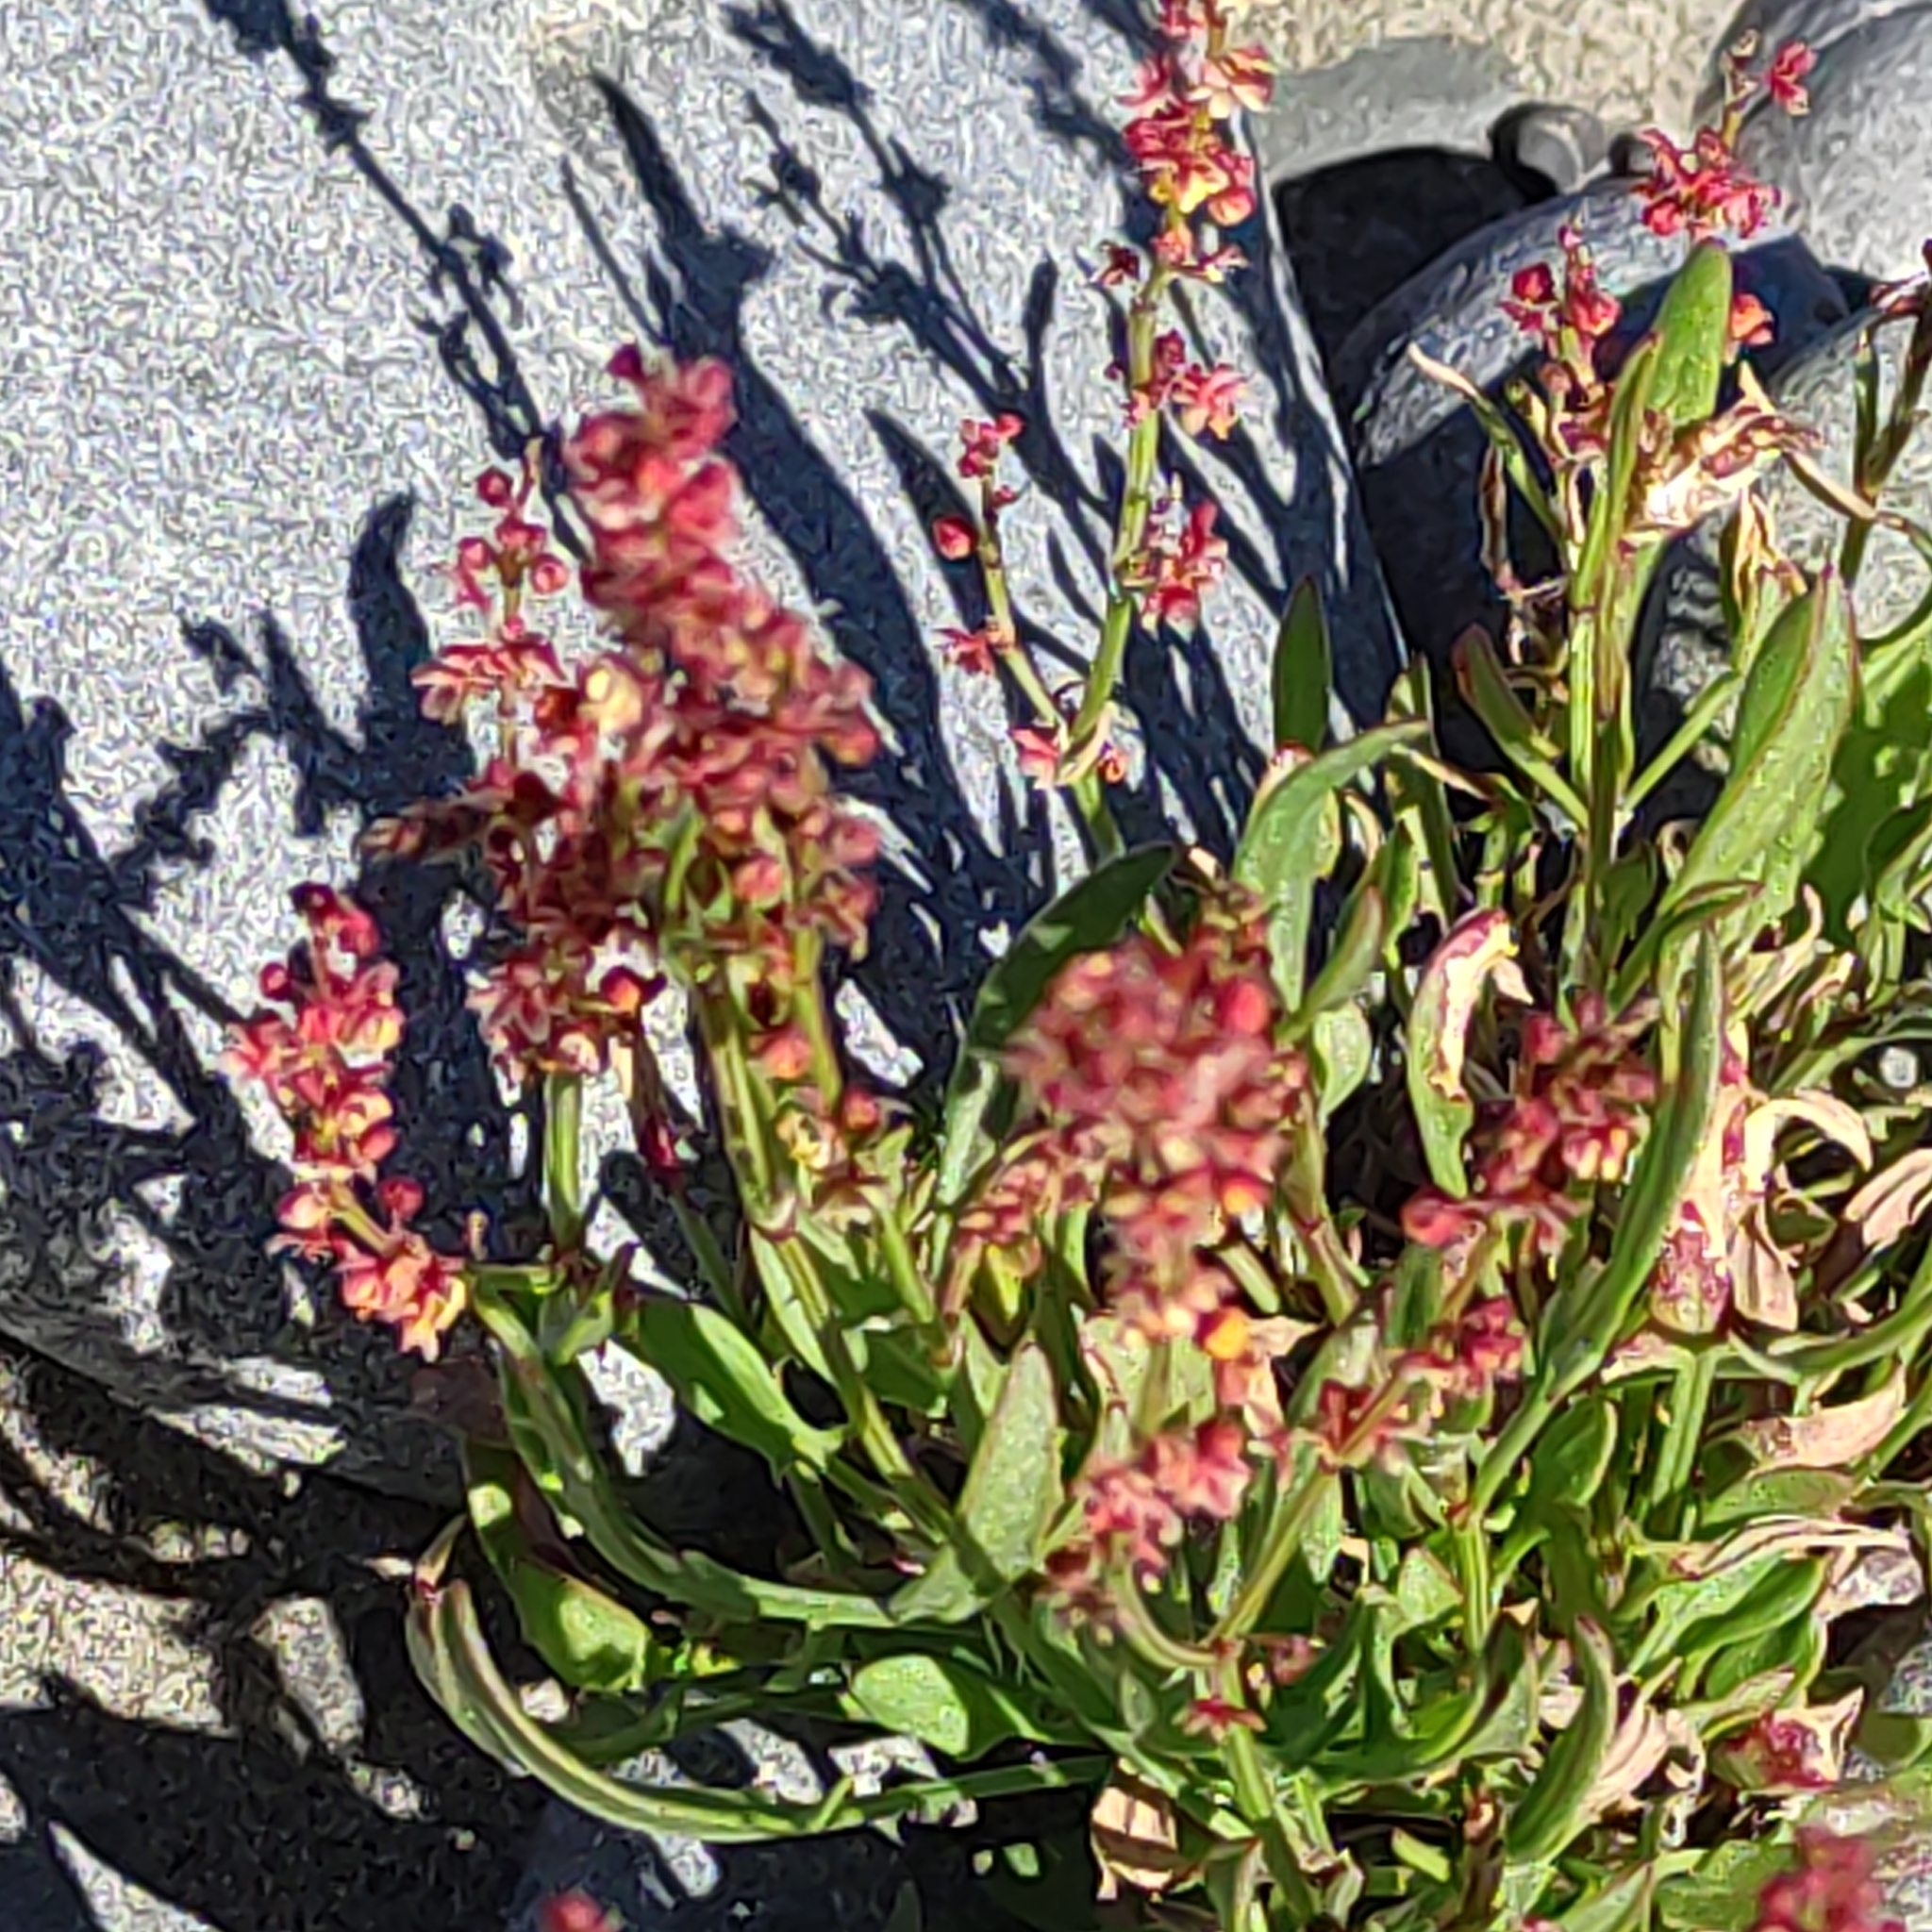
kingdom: Plantae
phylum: Tracheophyta
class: Magnoliopsida
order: Caryophyllales
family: Polygonaceae
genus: Rumex
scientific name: Rumex acetosella
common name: Common sheep sorrel
